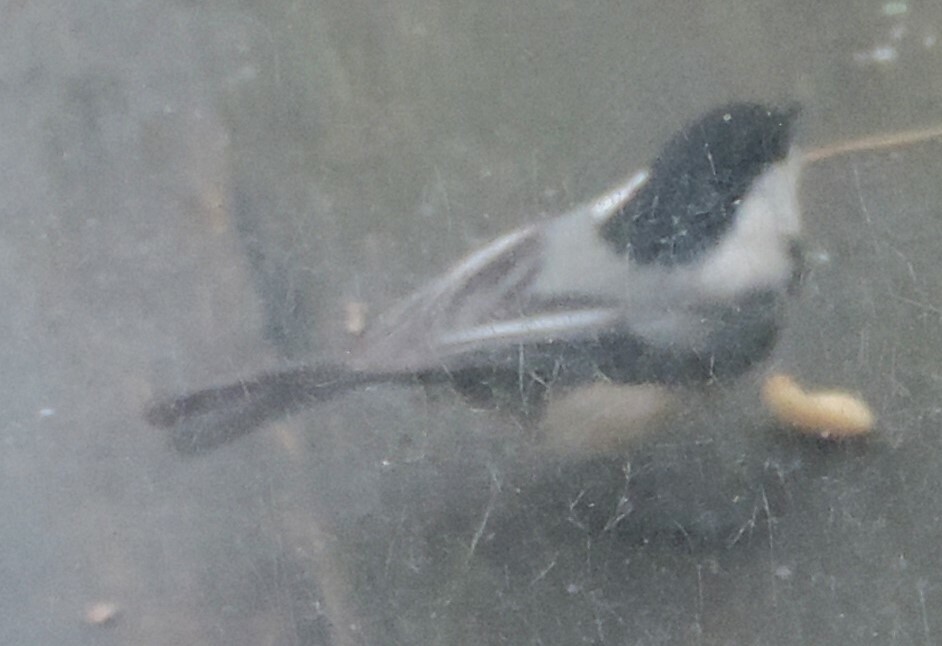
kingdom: Animalia
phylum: Chordata
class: Aves
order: Passeriformes
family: Paridae
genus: Poecile
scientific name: Poecile atricapillus
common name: Black-capped chickadee
